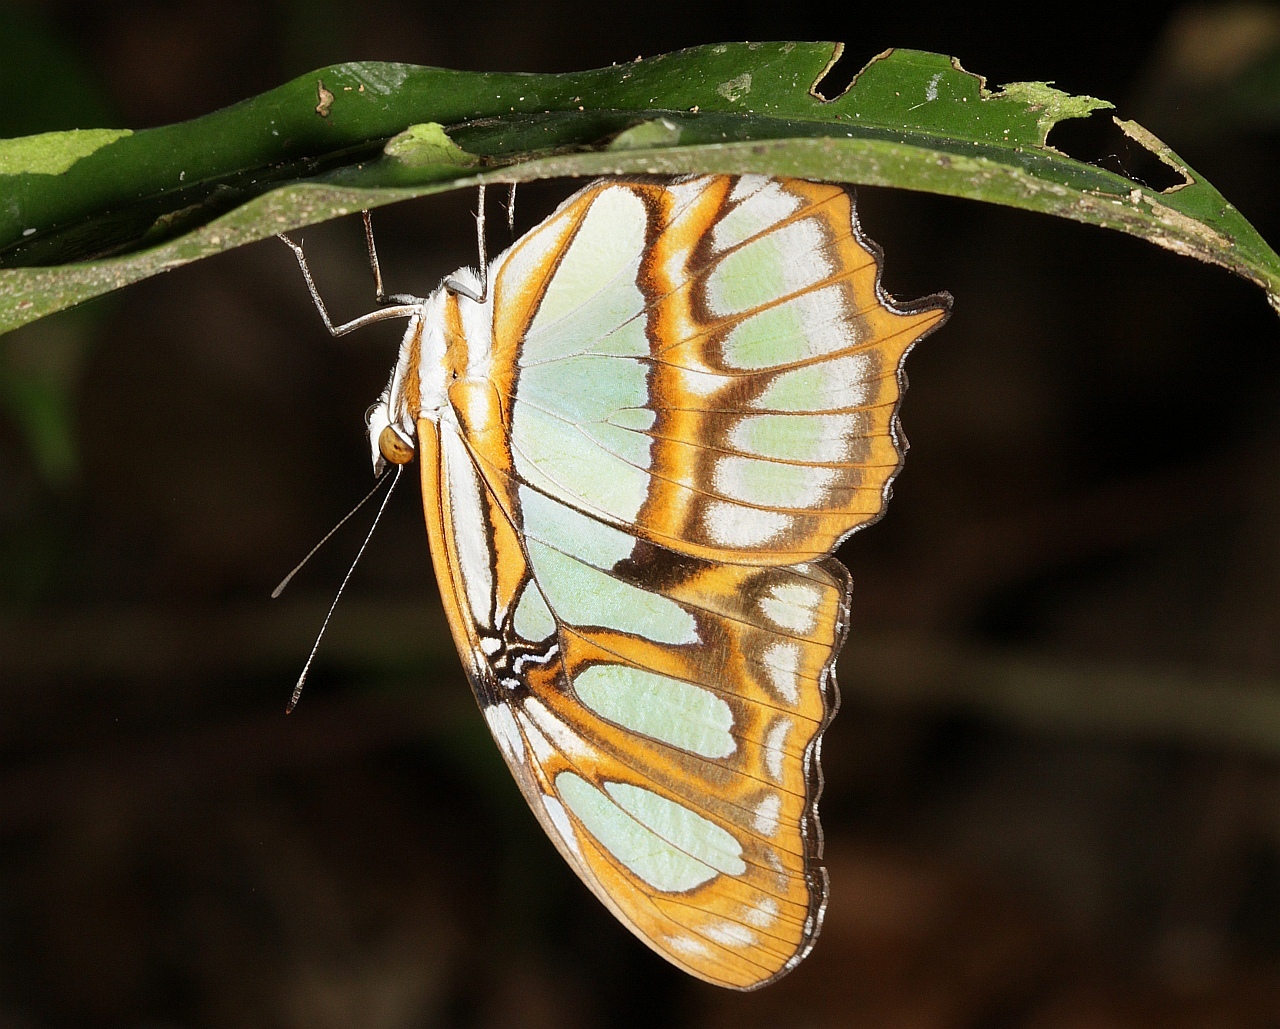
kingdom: Animalia
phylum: Arthropoda
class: Insecta
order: Lepidoptera
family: Nymphalidae
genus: Siproeta
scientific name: Siproeta stelenes
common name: Malachite
